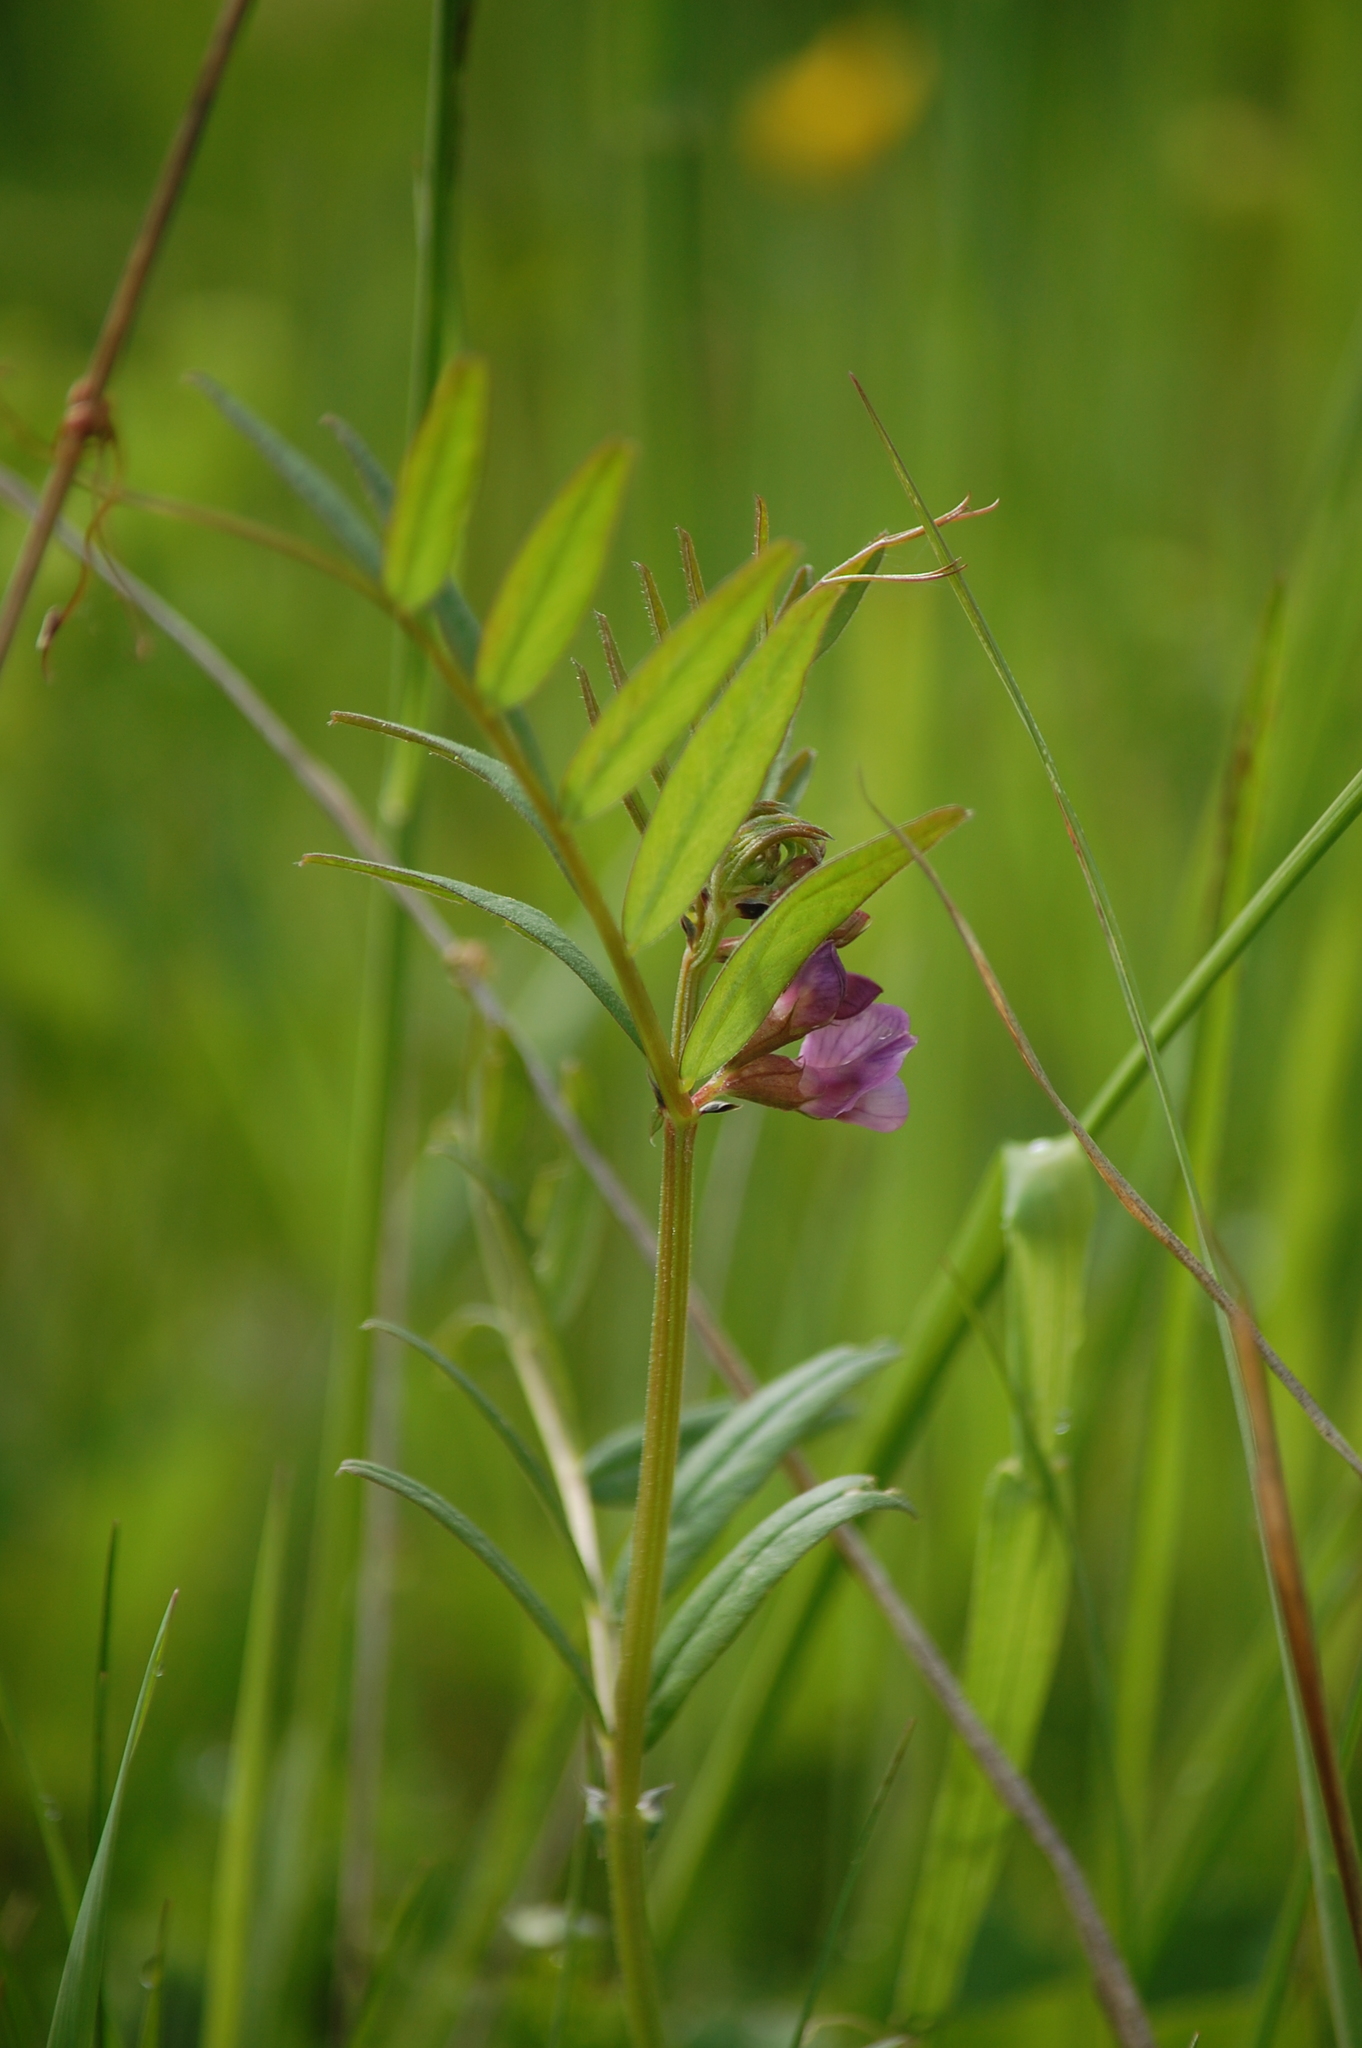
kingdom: Plantae
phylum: Tracheophyta
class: Magnoliopsida
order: Fabales
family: Fabaceae
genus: Vicia
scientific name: Vicia sepium
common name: Bush vetch
